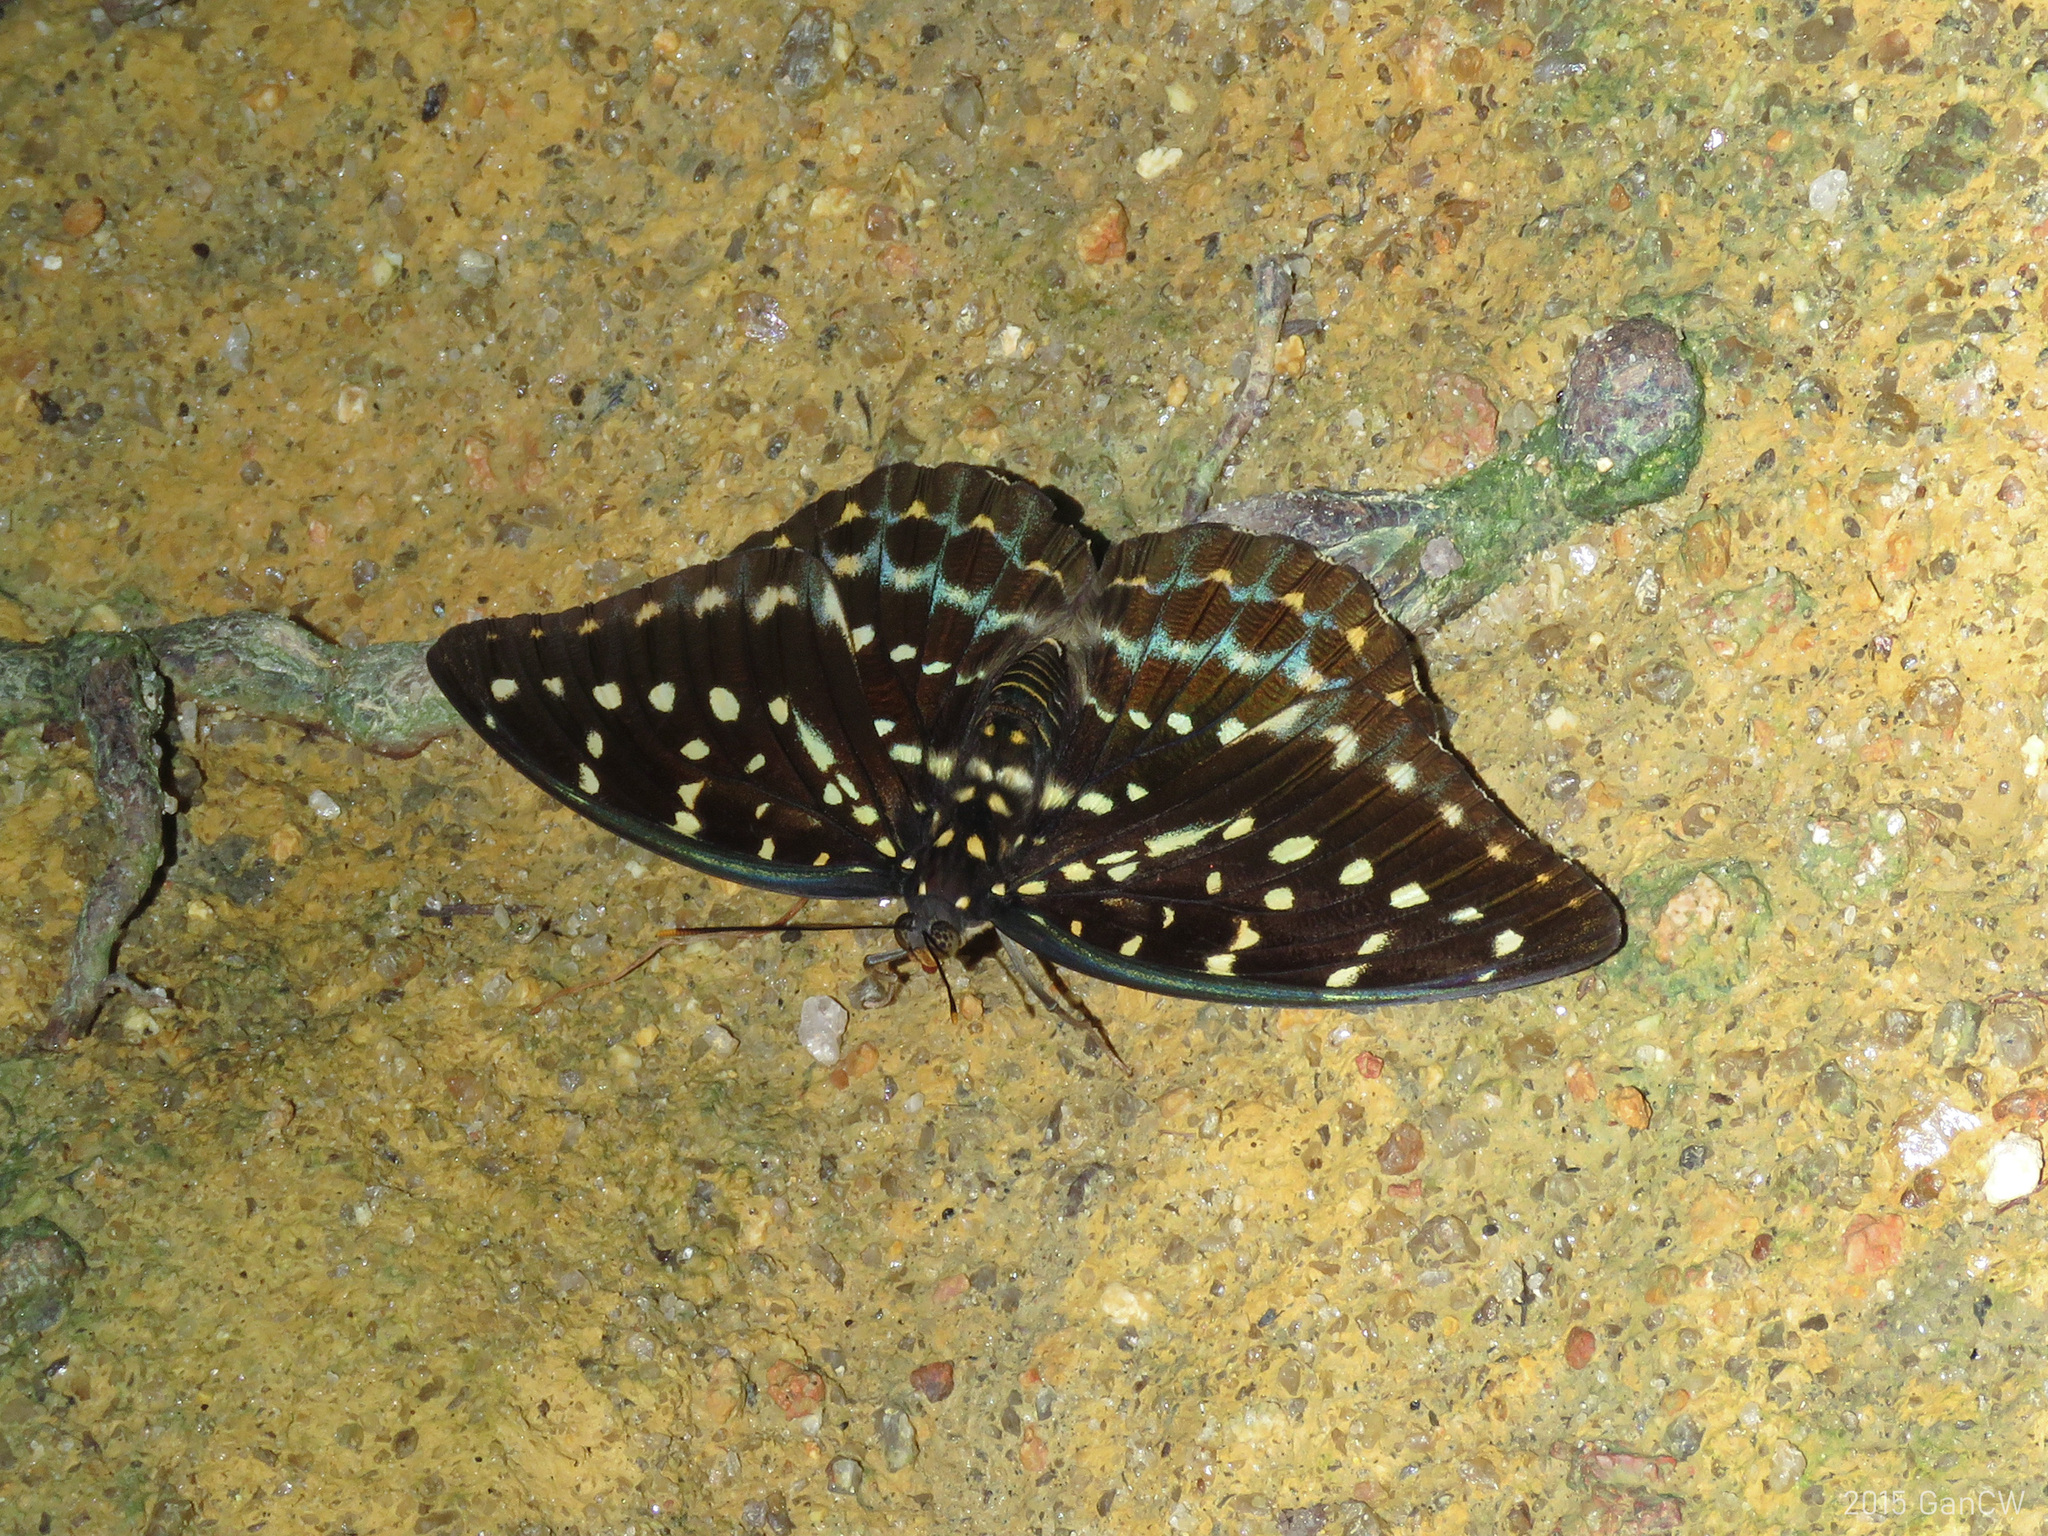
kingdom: Animalia
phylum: Arthropoda
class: Insecta
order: Lepidoptera
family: Nymphalidae
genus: Lexias
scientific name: Lexias pardalis
